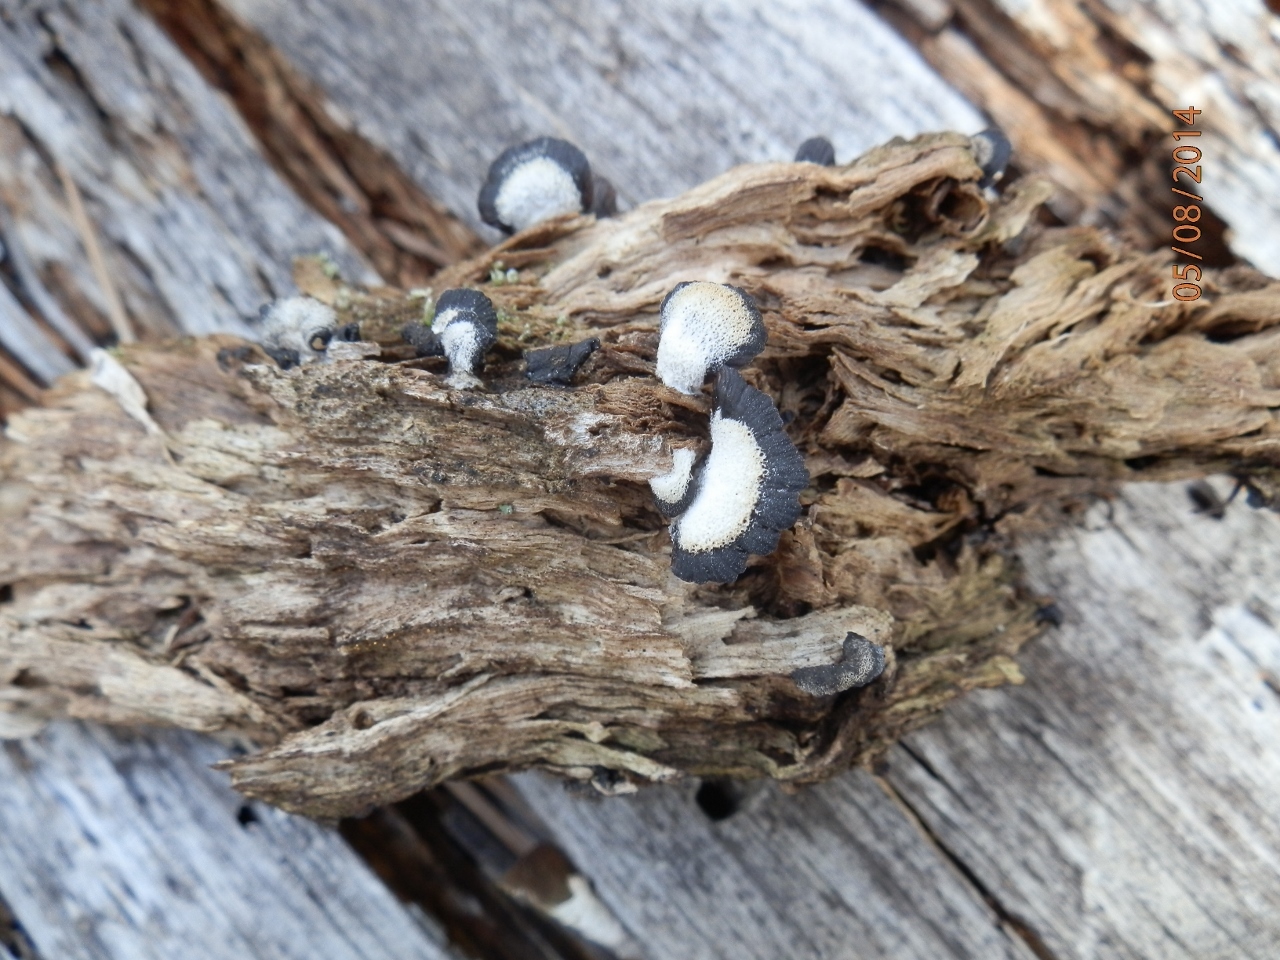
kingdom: Fungi
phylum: Basidiomycota
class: Agaricomycetes
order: Agaricales
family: Pleurotaceae
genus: Resupinatus
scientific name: Resupinatus alboniger
